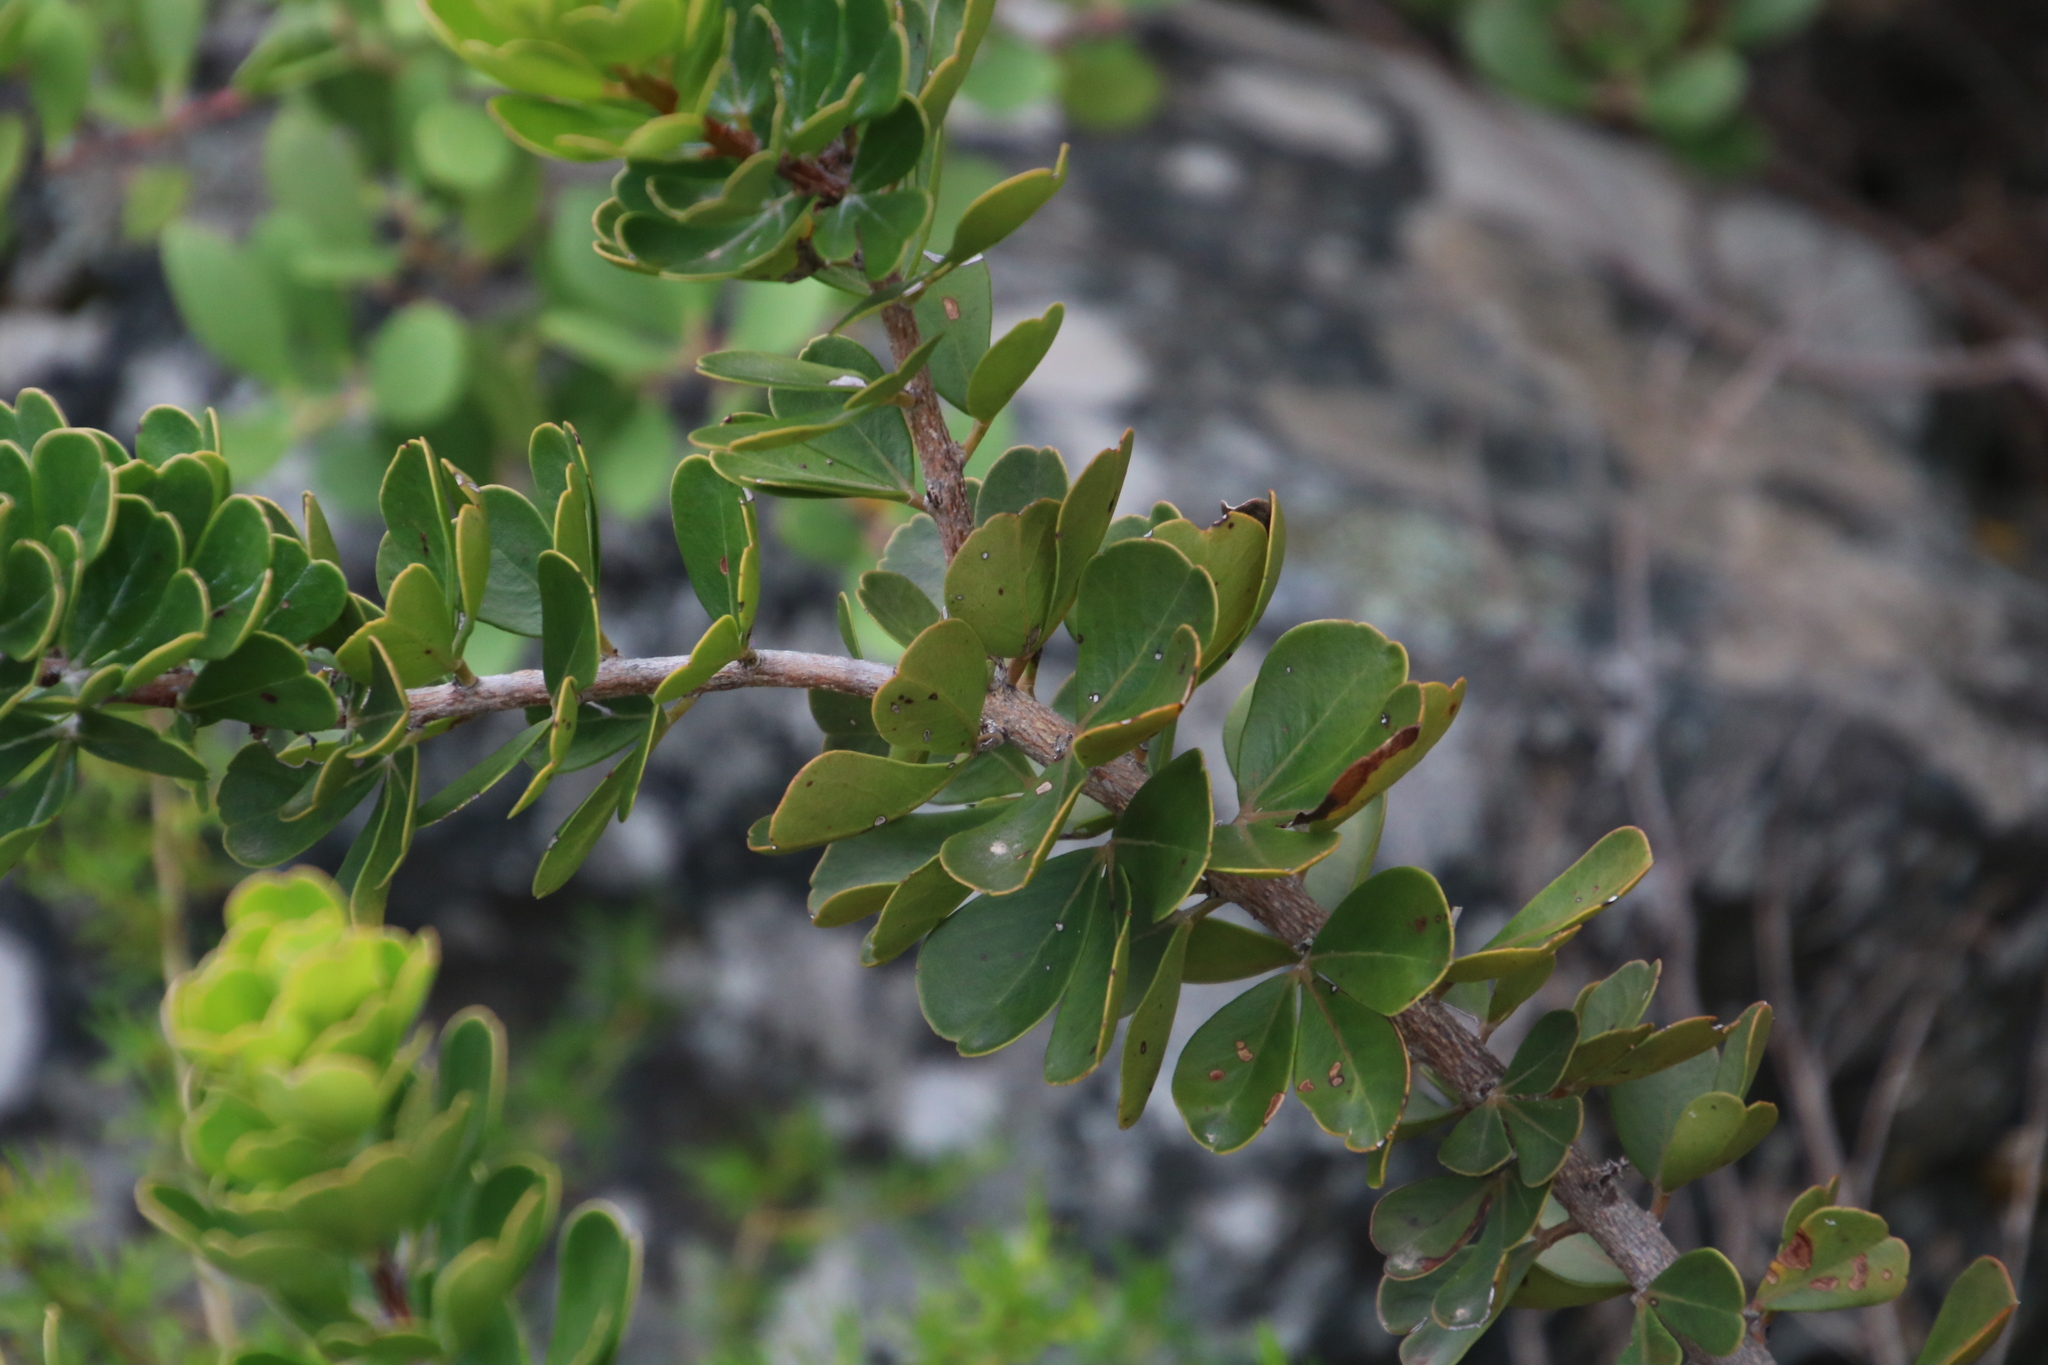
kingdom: Plantae
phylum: Tracheophyta
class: Magnoliopsida
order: Sapindales
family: Anacardiaceae
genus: Searsia
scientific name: Searsia scytophylla
